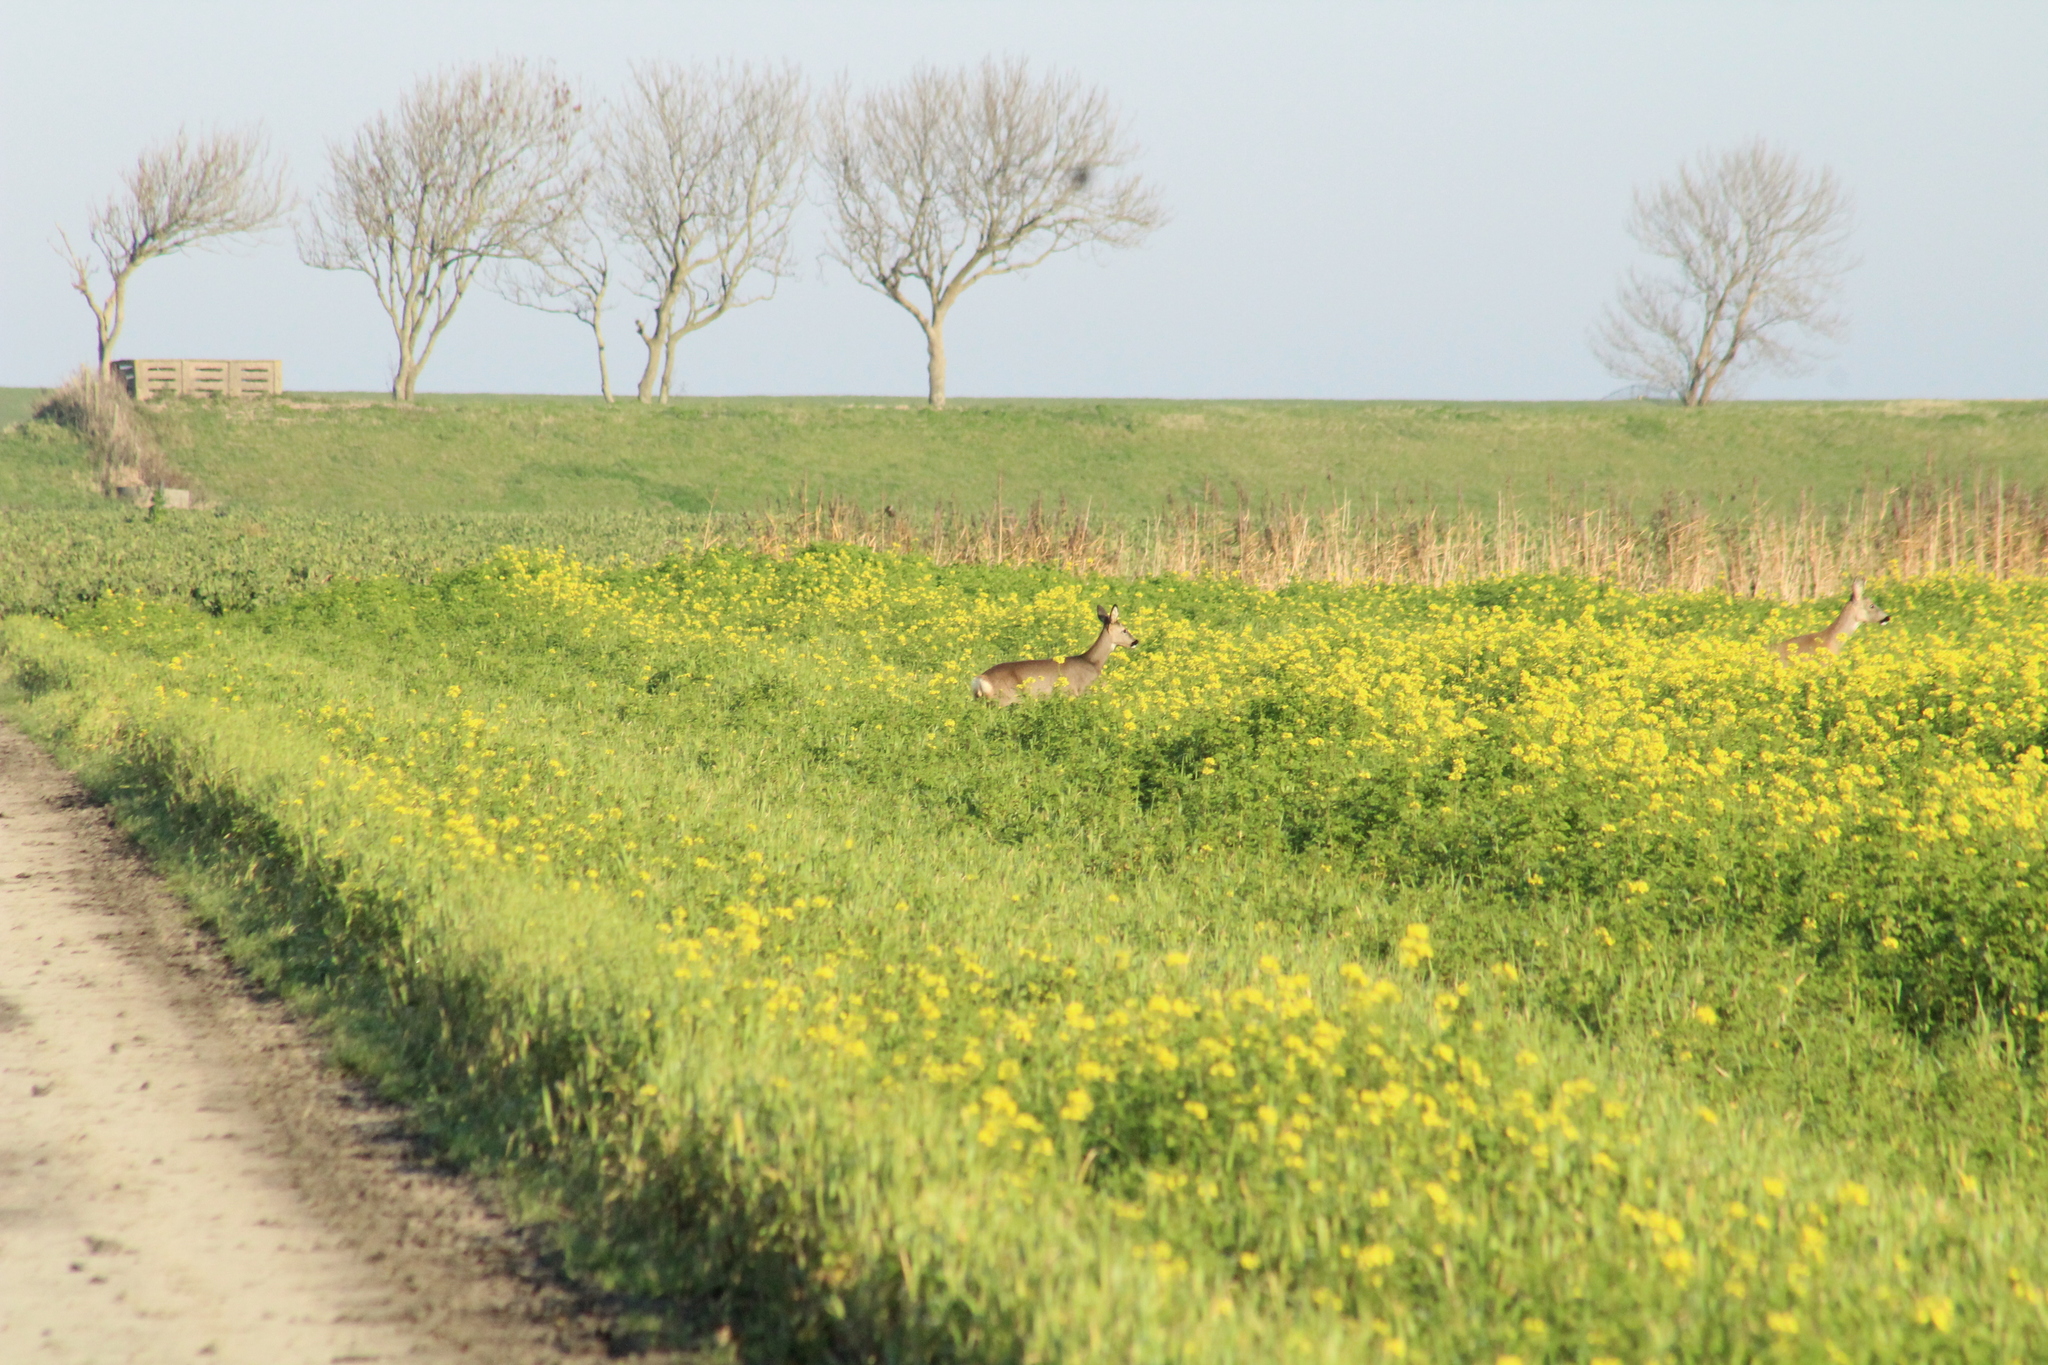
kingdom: Animalia
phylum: Chordata
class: Mammalia
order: Artiodactyla
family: Cervidae
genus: Capreolus
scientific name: Capreolus capreolus
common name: Western roe deer
